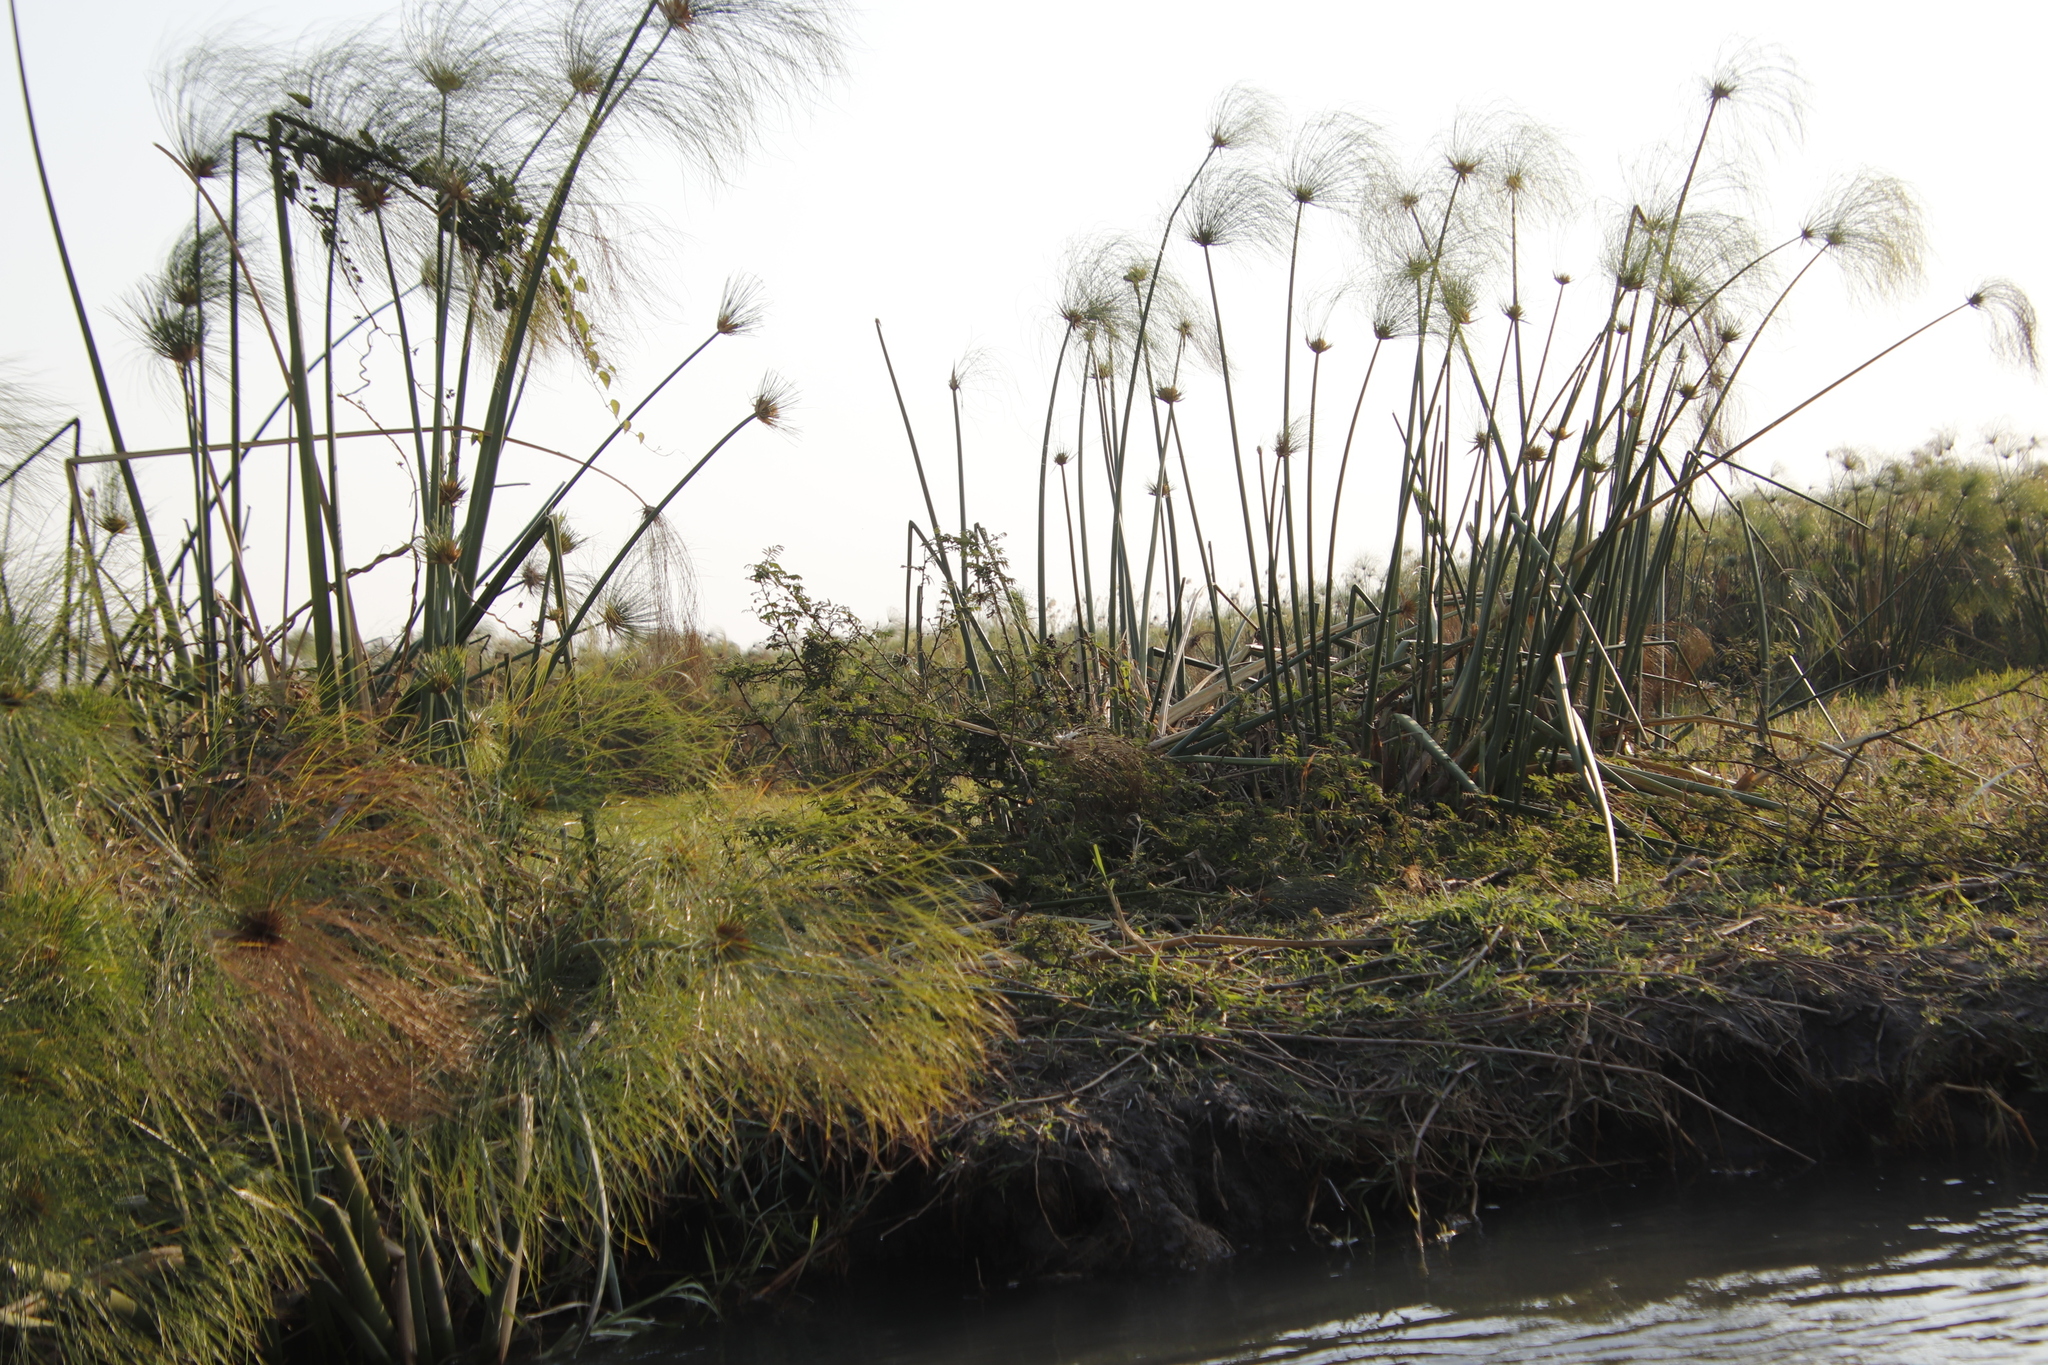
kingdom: Plantae
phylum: Tracheophyta
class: Liliopsida
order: Poales
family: Cyperaceae
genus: Cyperus
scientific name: Cyperus papyrus
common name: Papyrus
